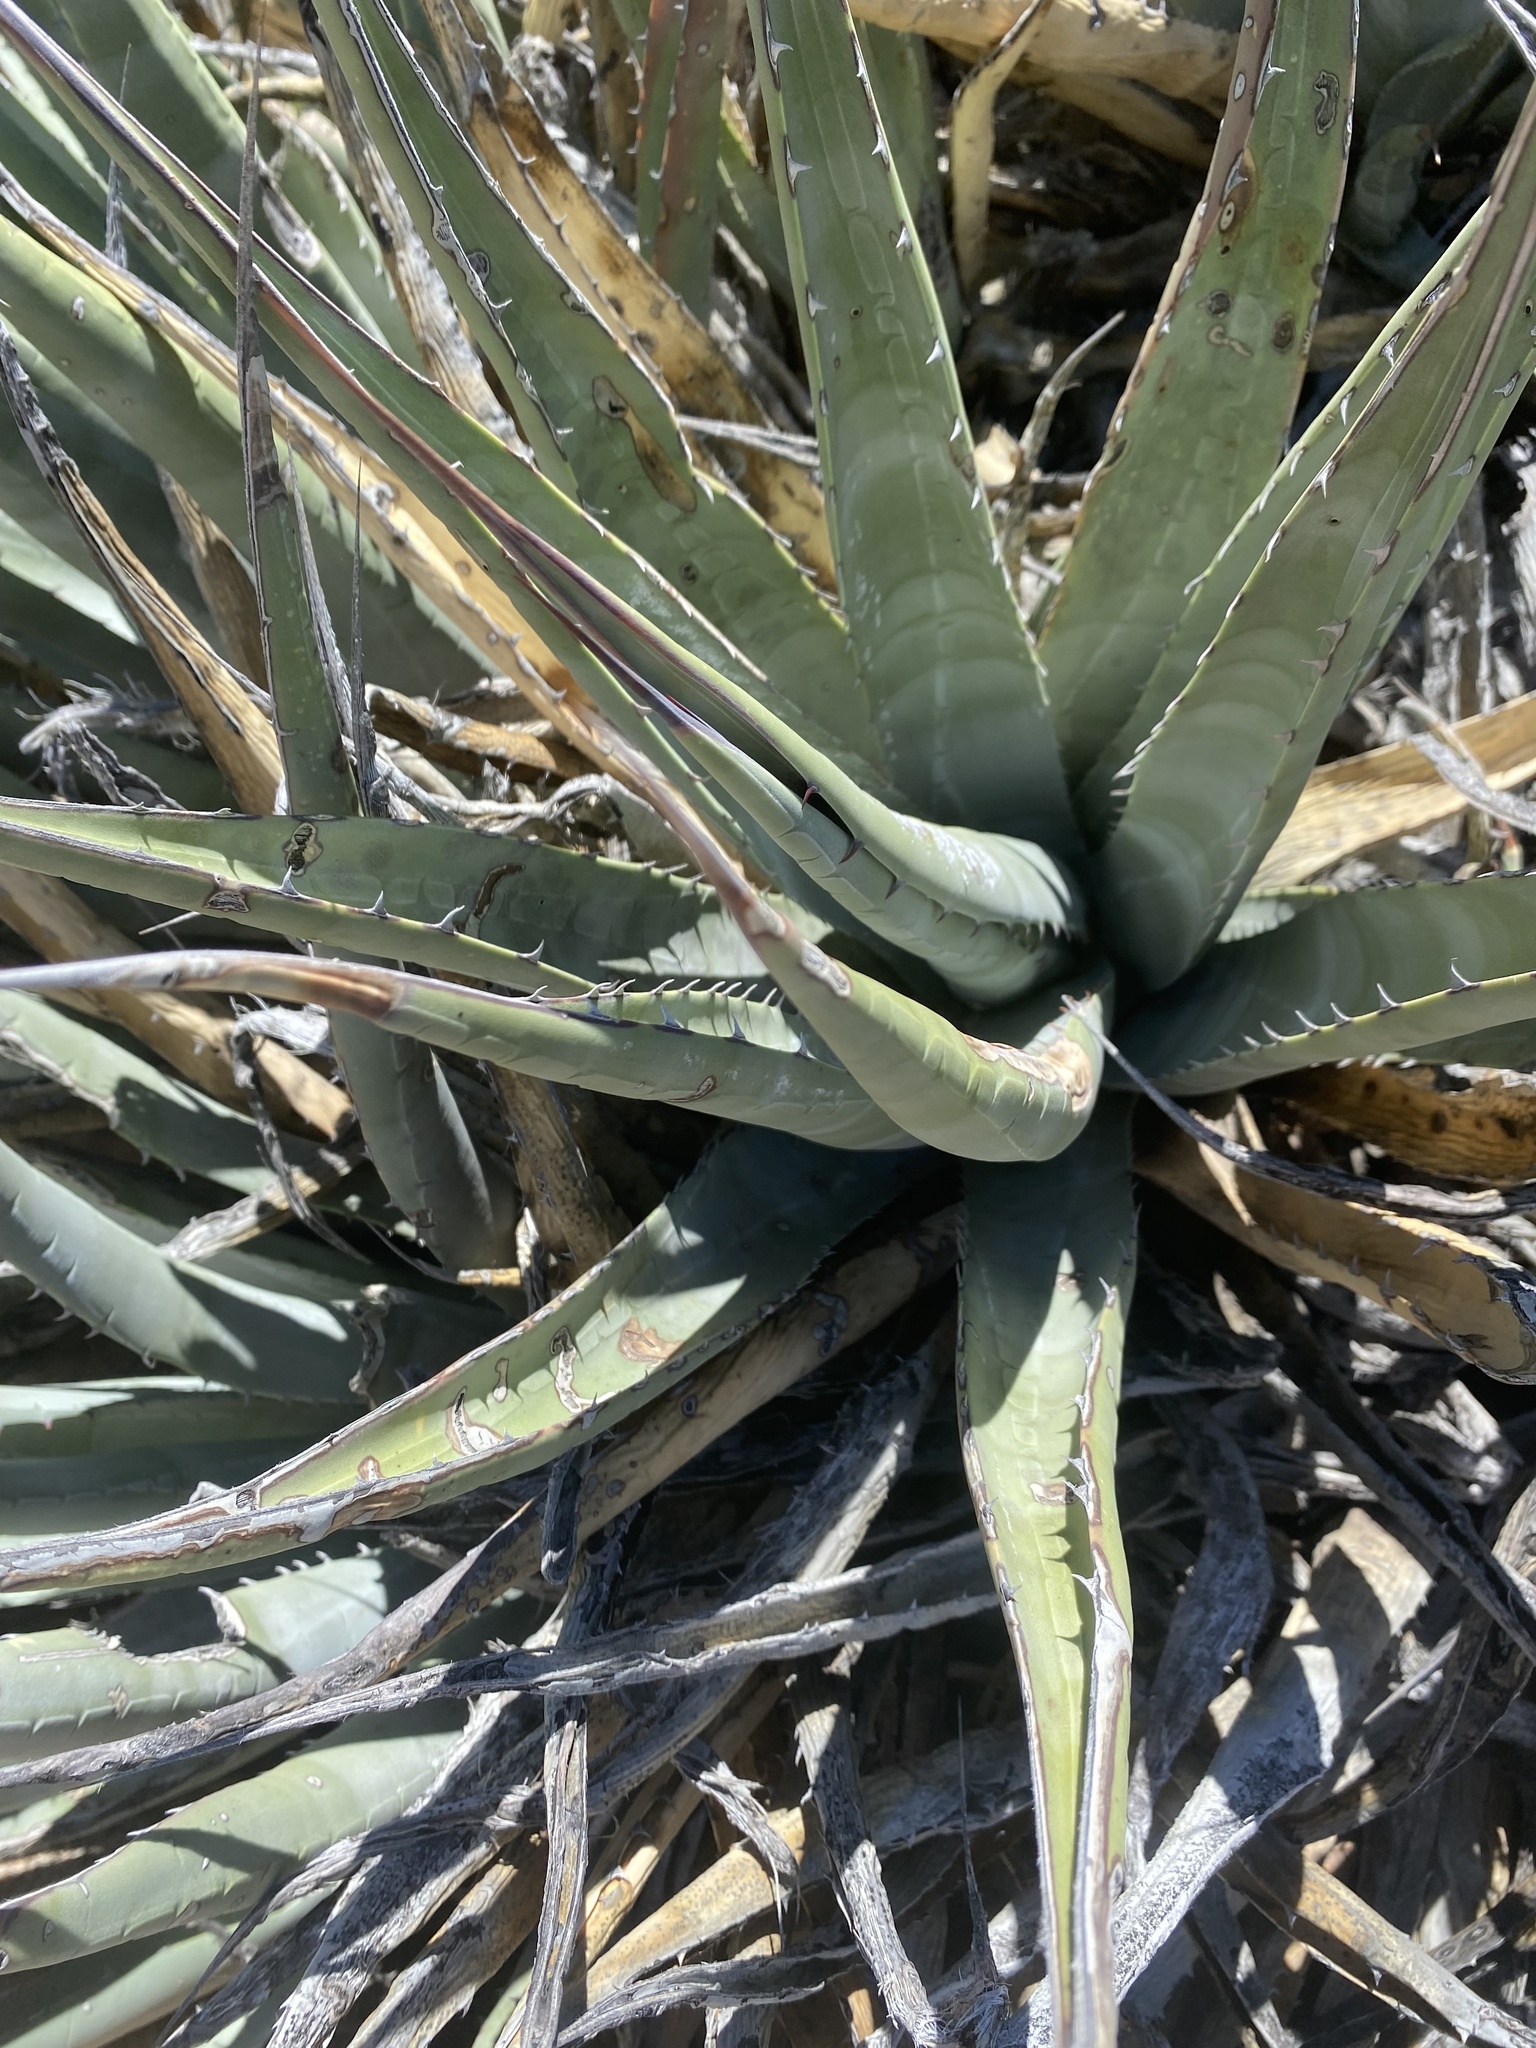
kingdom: Plantae
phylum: Tracheophyta
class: Liliopsida
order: Asparagales
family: Asparagaceae
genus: Agave
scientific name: Agave deserti
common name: Desert agave
